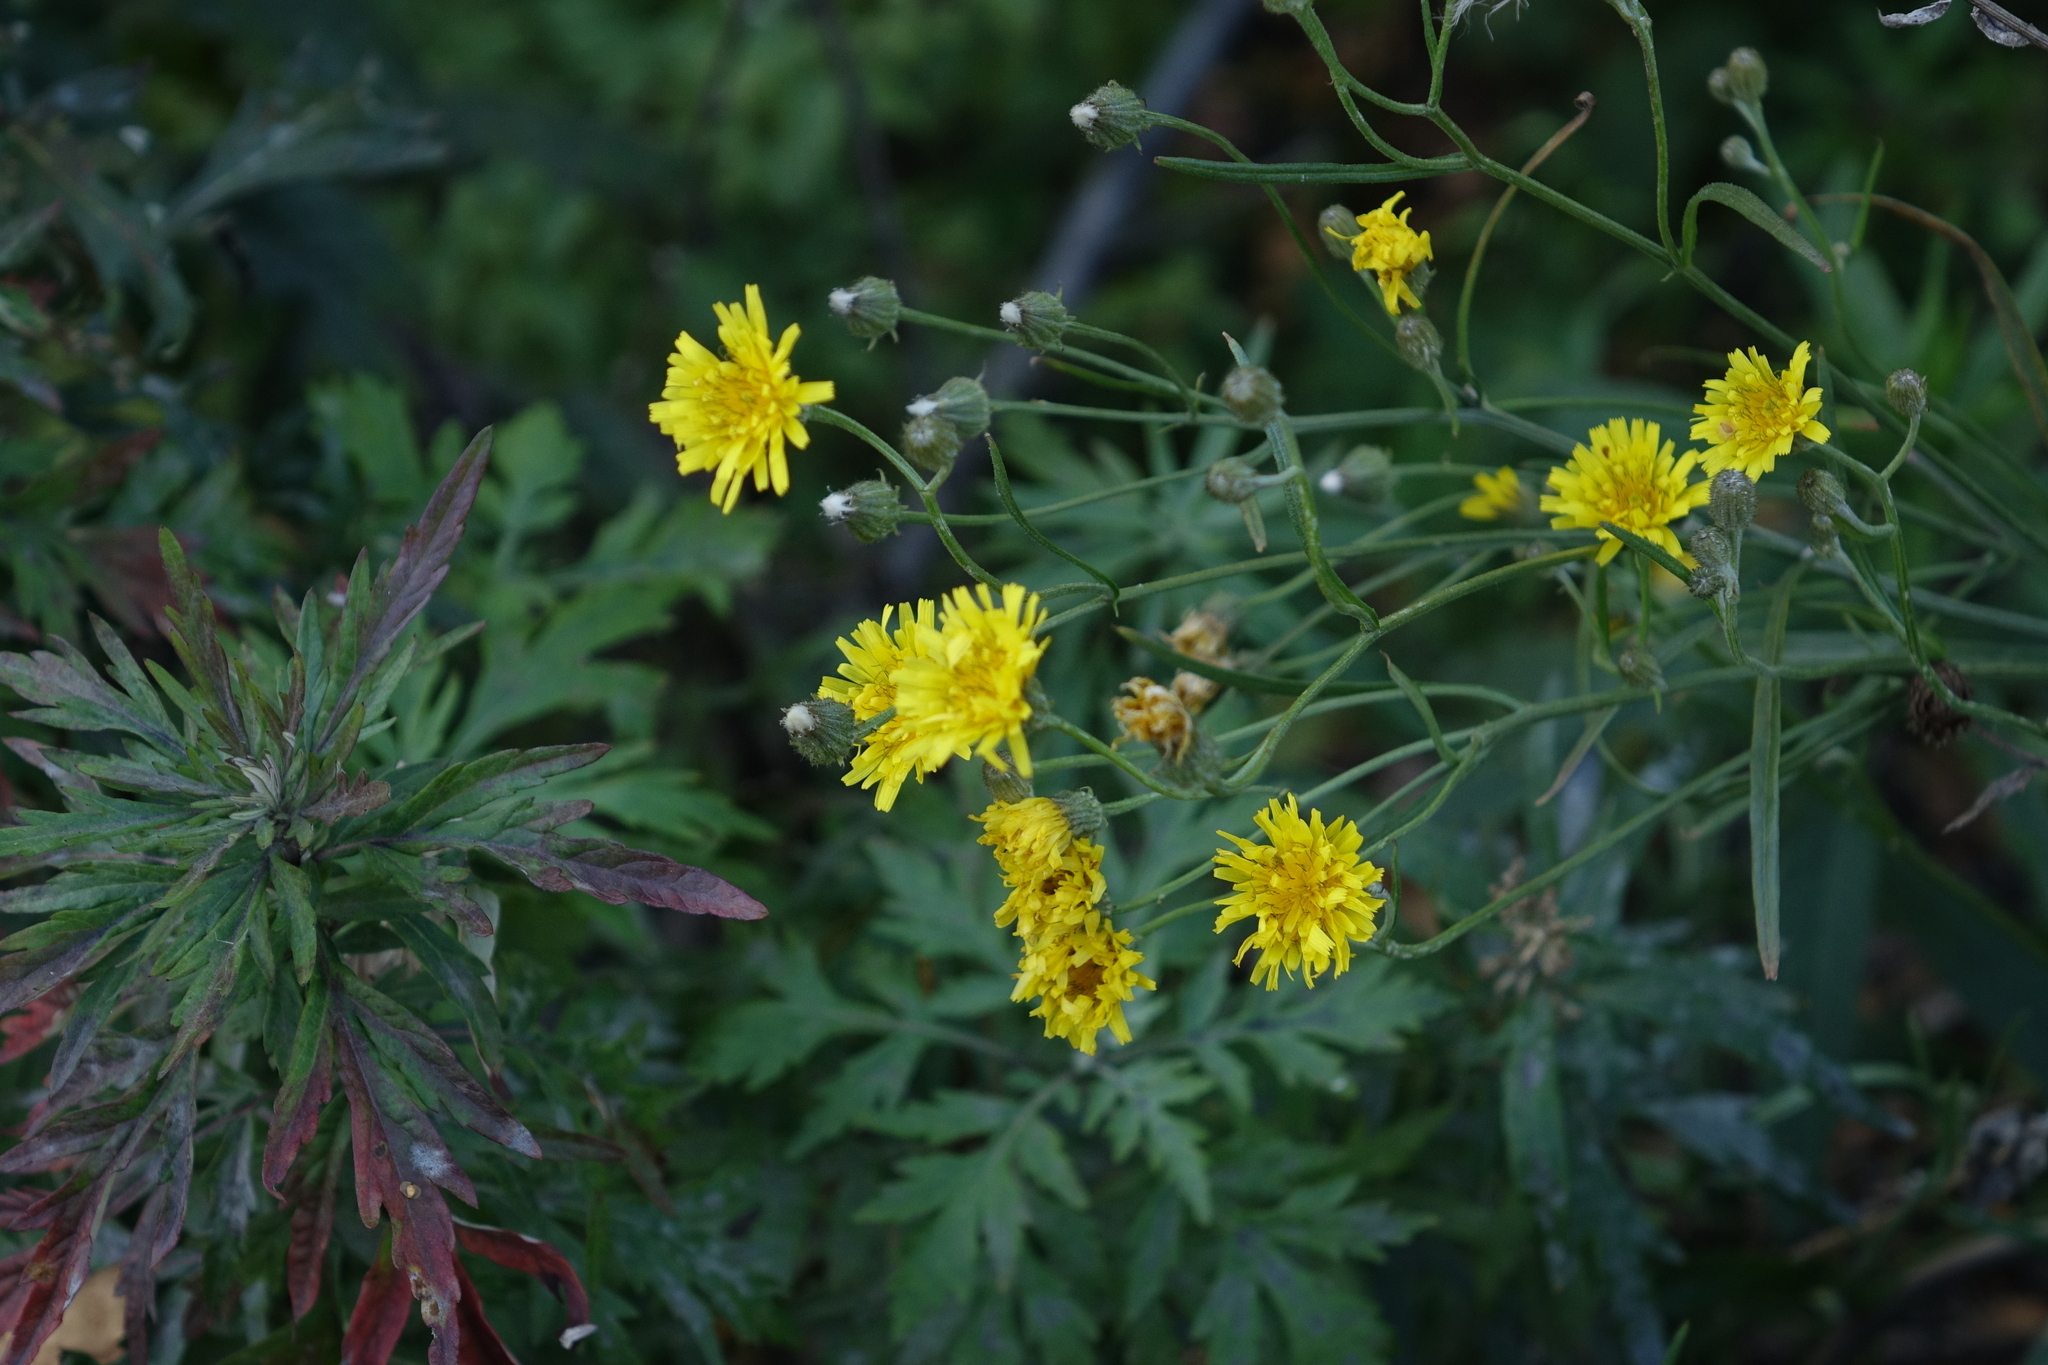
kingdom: Plantae
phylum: Tracheophyta
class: Magnoliopsida
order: Asterales
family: Asteraceae
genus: Crepis
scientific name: Crepis tectorum
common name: Narrow-leaved hawk's-beard
